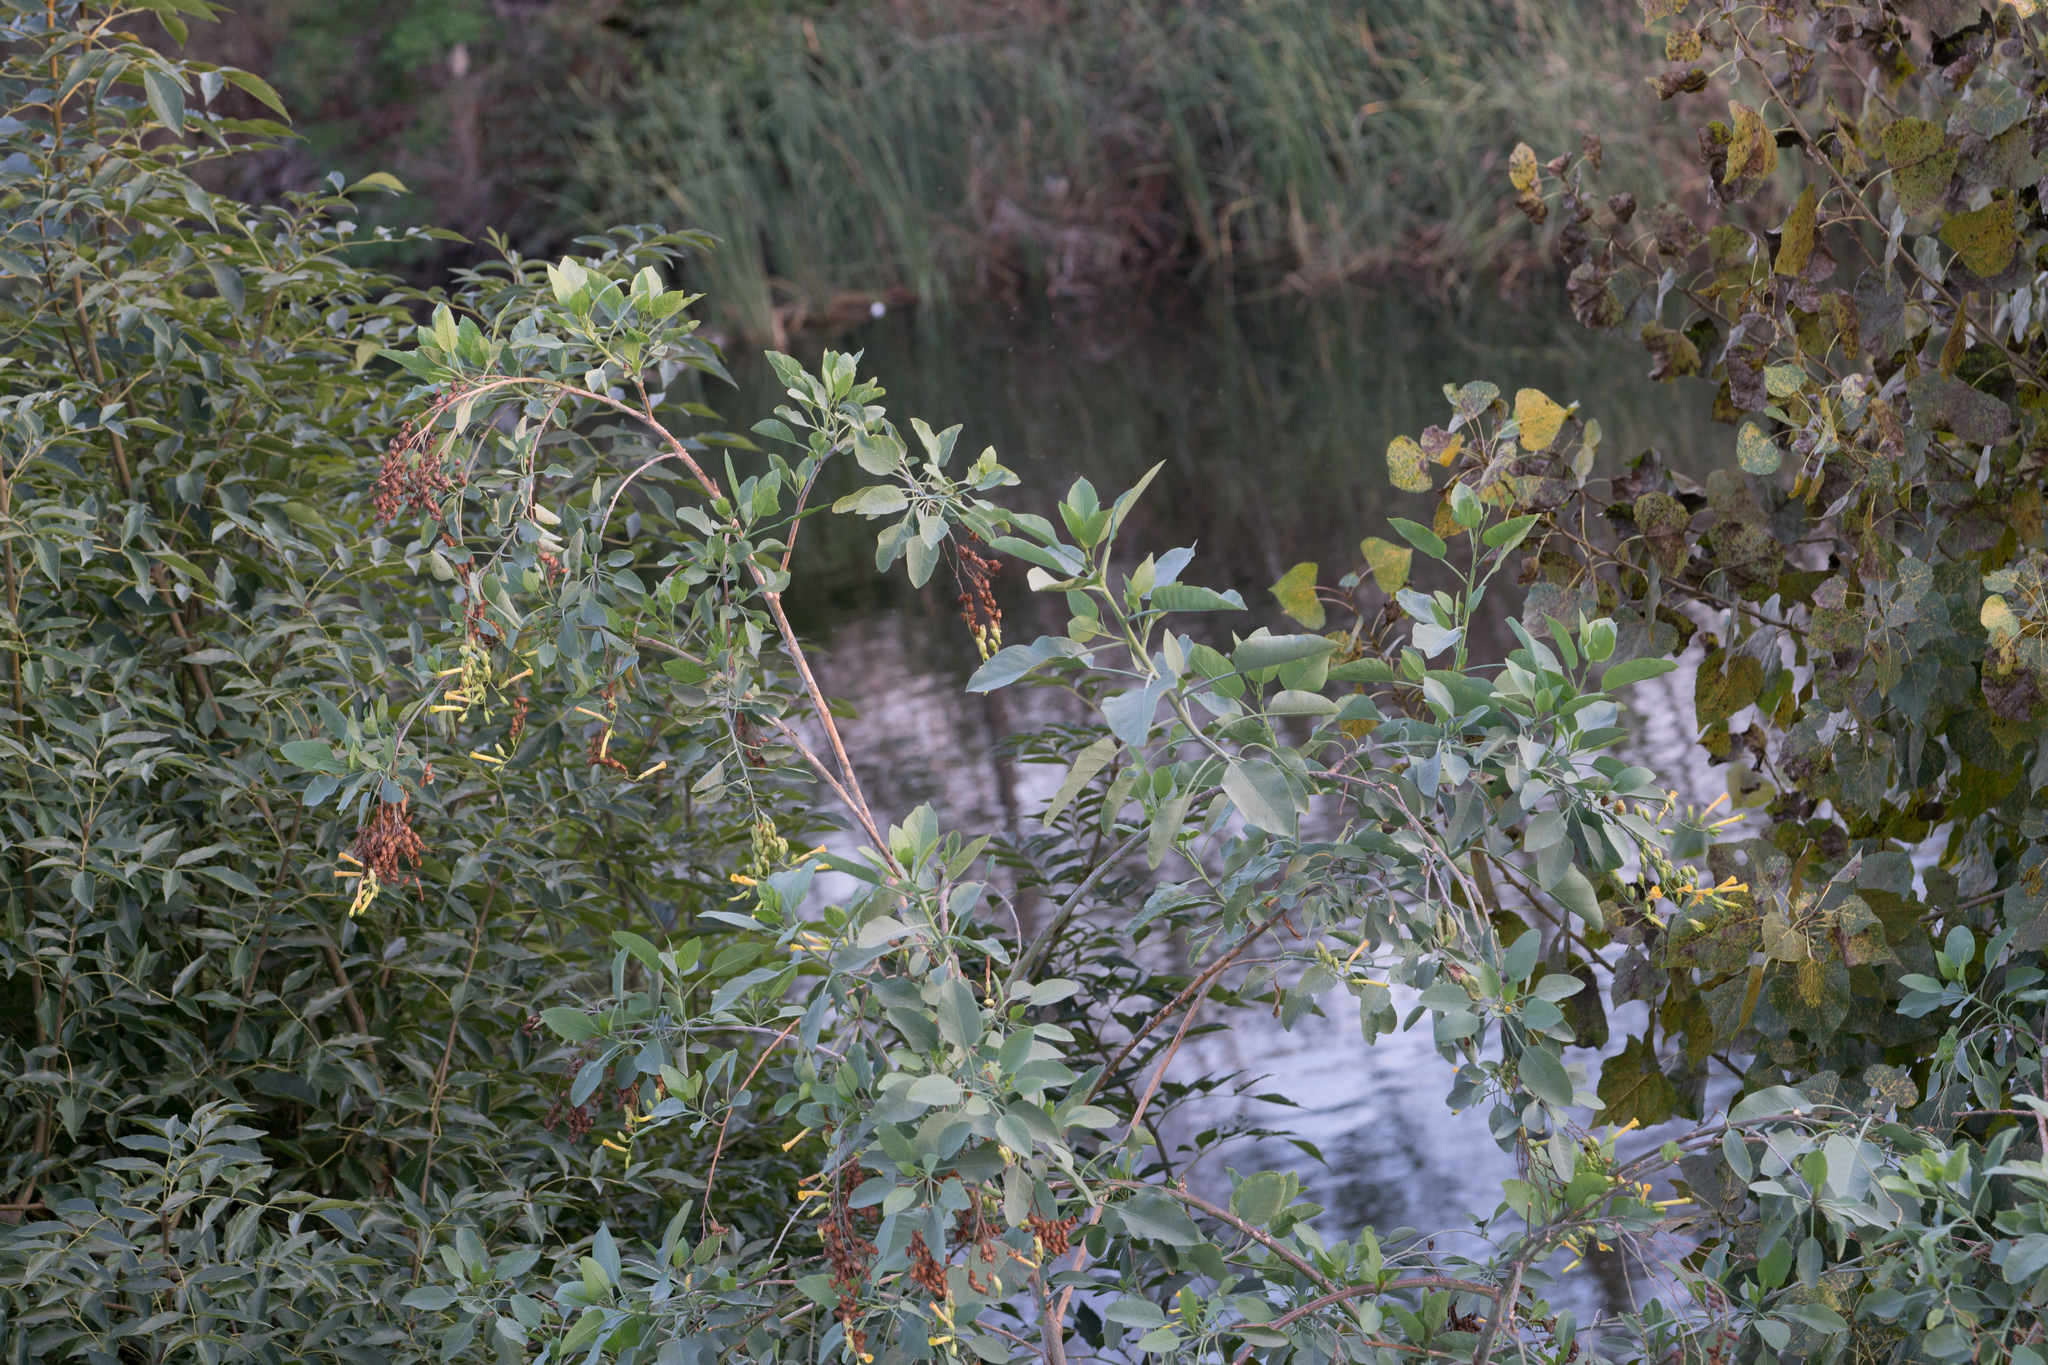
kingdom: Plantae
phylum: Tracheophyta
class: Magnoliopsida
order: Solanales
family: Solanaceae
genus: Nicotiana
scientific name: Nicotiana glauca
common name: Tree tobacco
